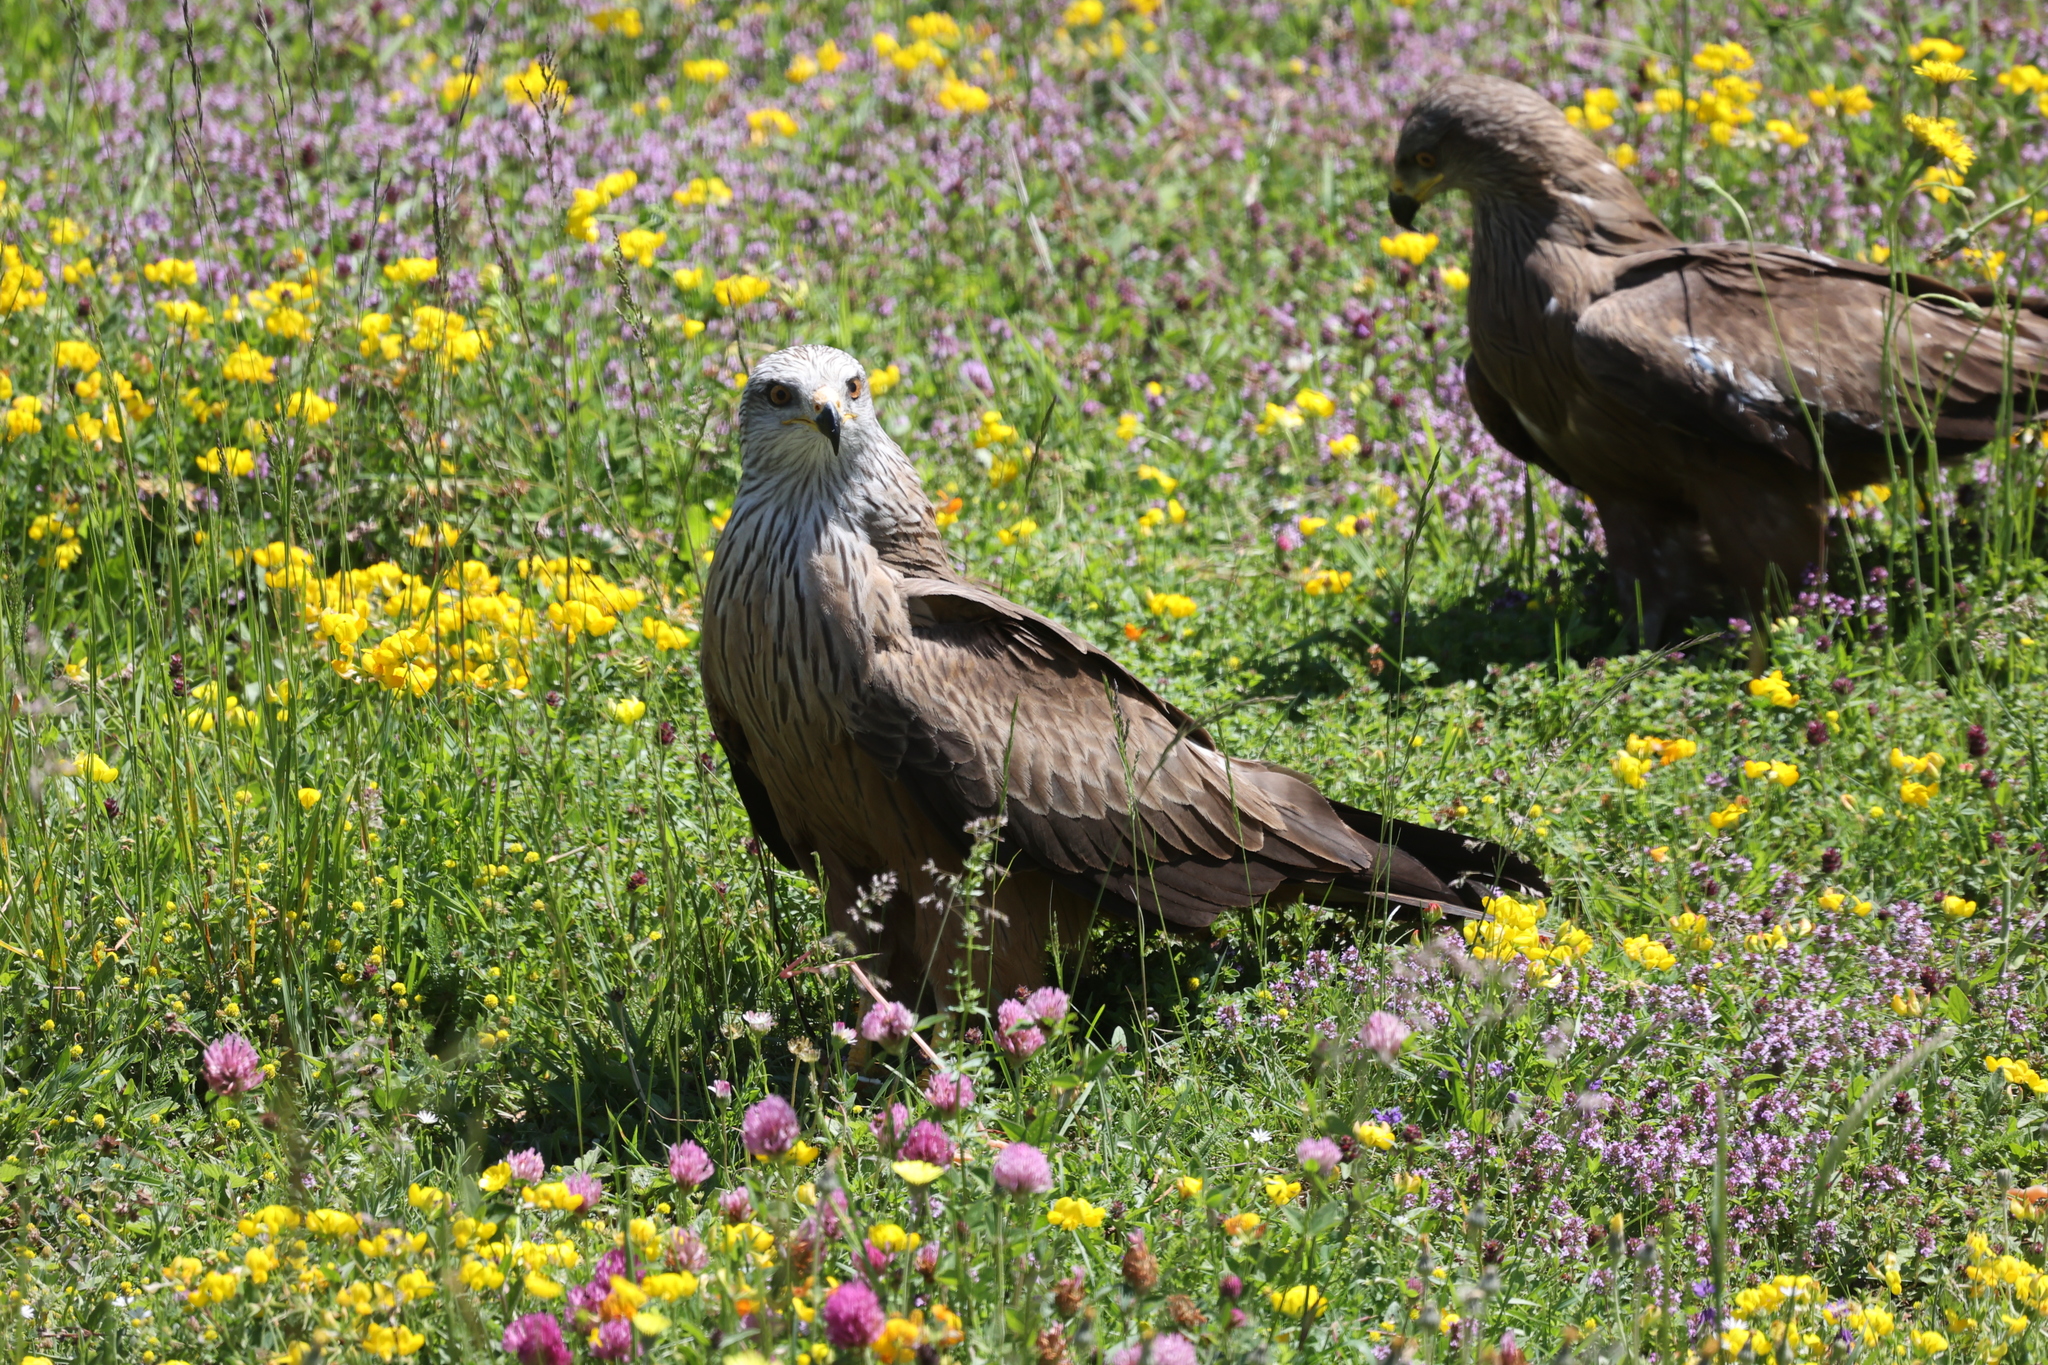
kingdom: Animalia
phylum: Chordata
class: Aves
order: Accipitriformes
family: Accipitridae
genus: Milvus
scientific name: Milvus migrans
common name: Black kite
